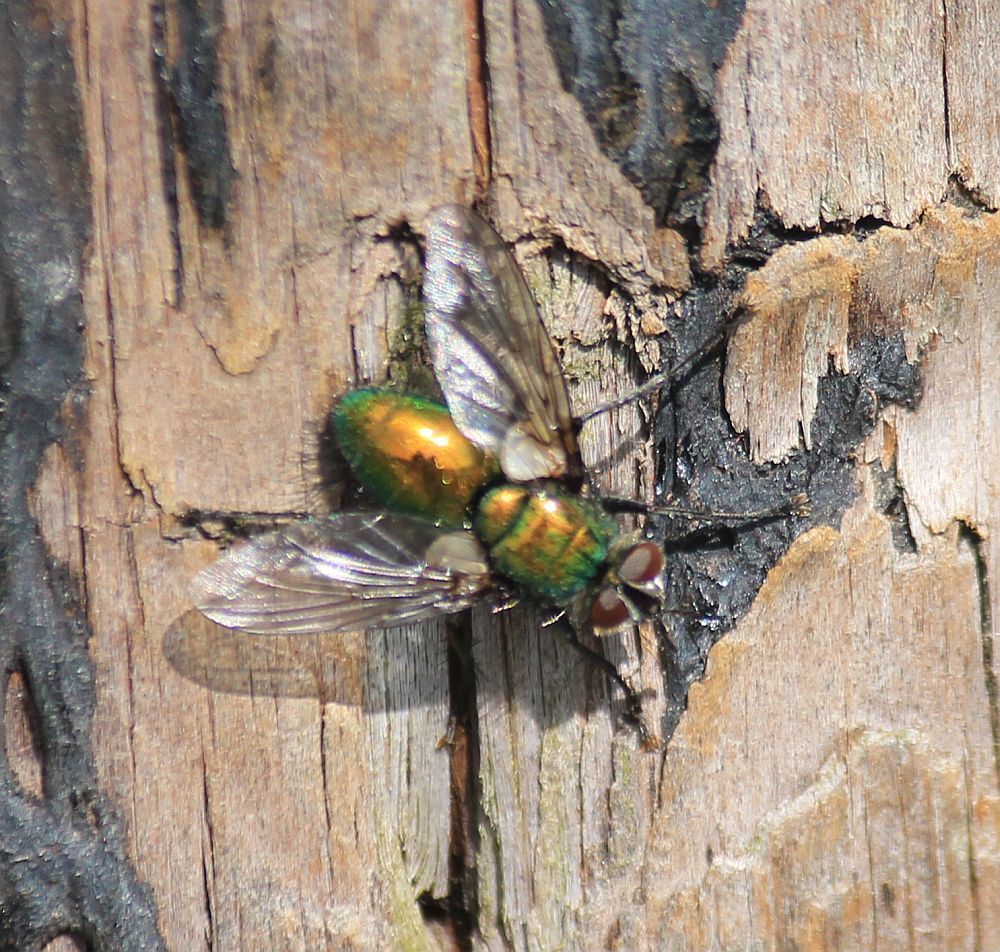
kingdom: Animalia
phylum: Arthropoda
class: Insecta
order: Diptera
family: Tachinidae
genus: Gymnocheta
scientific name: Gymnocheta viridis
